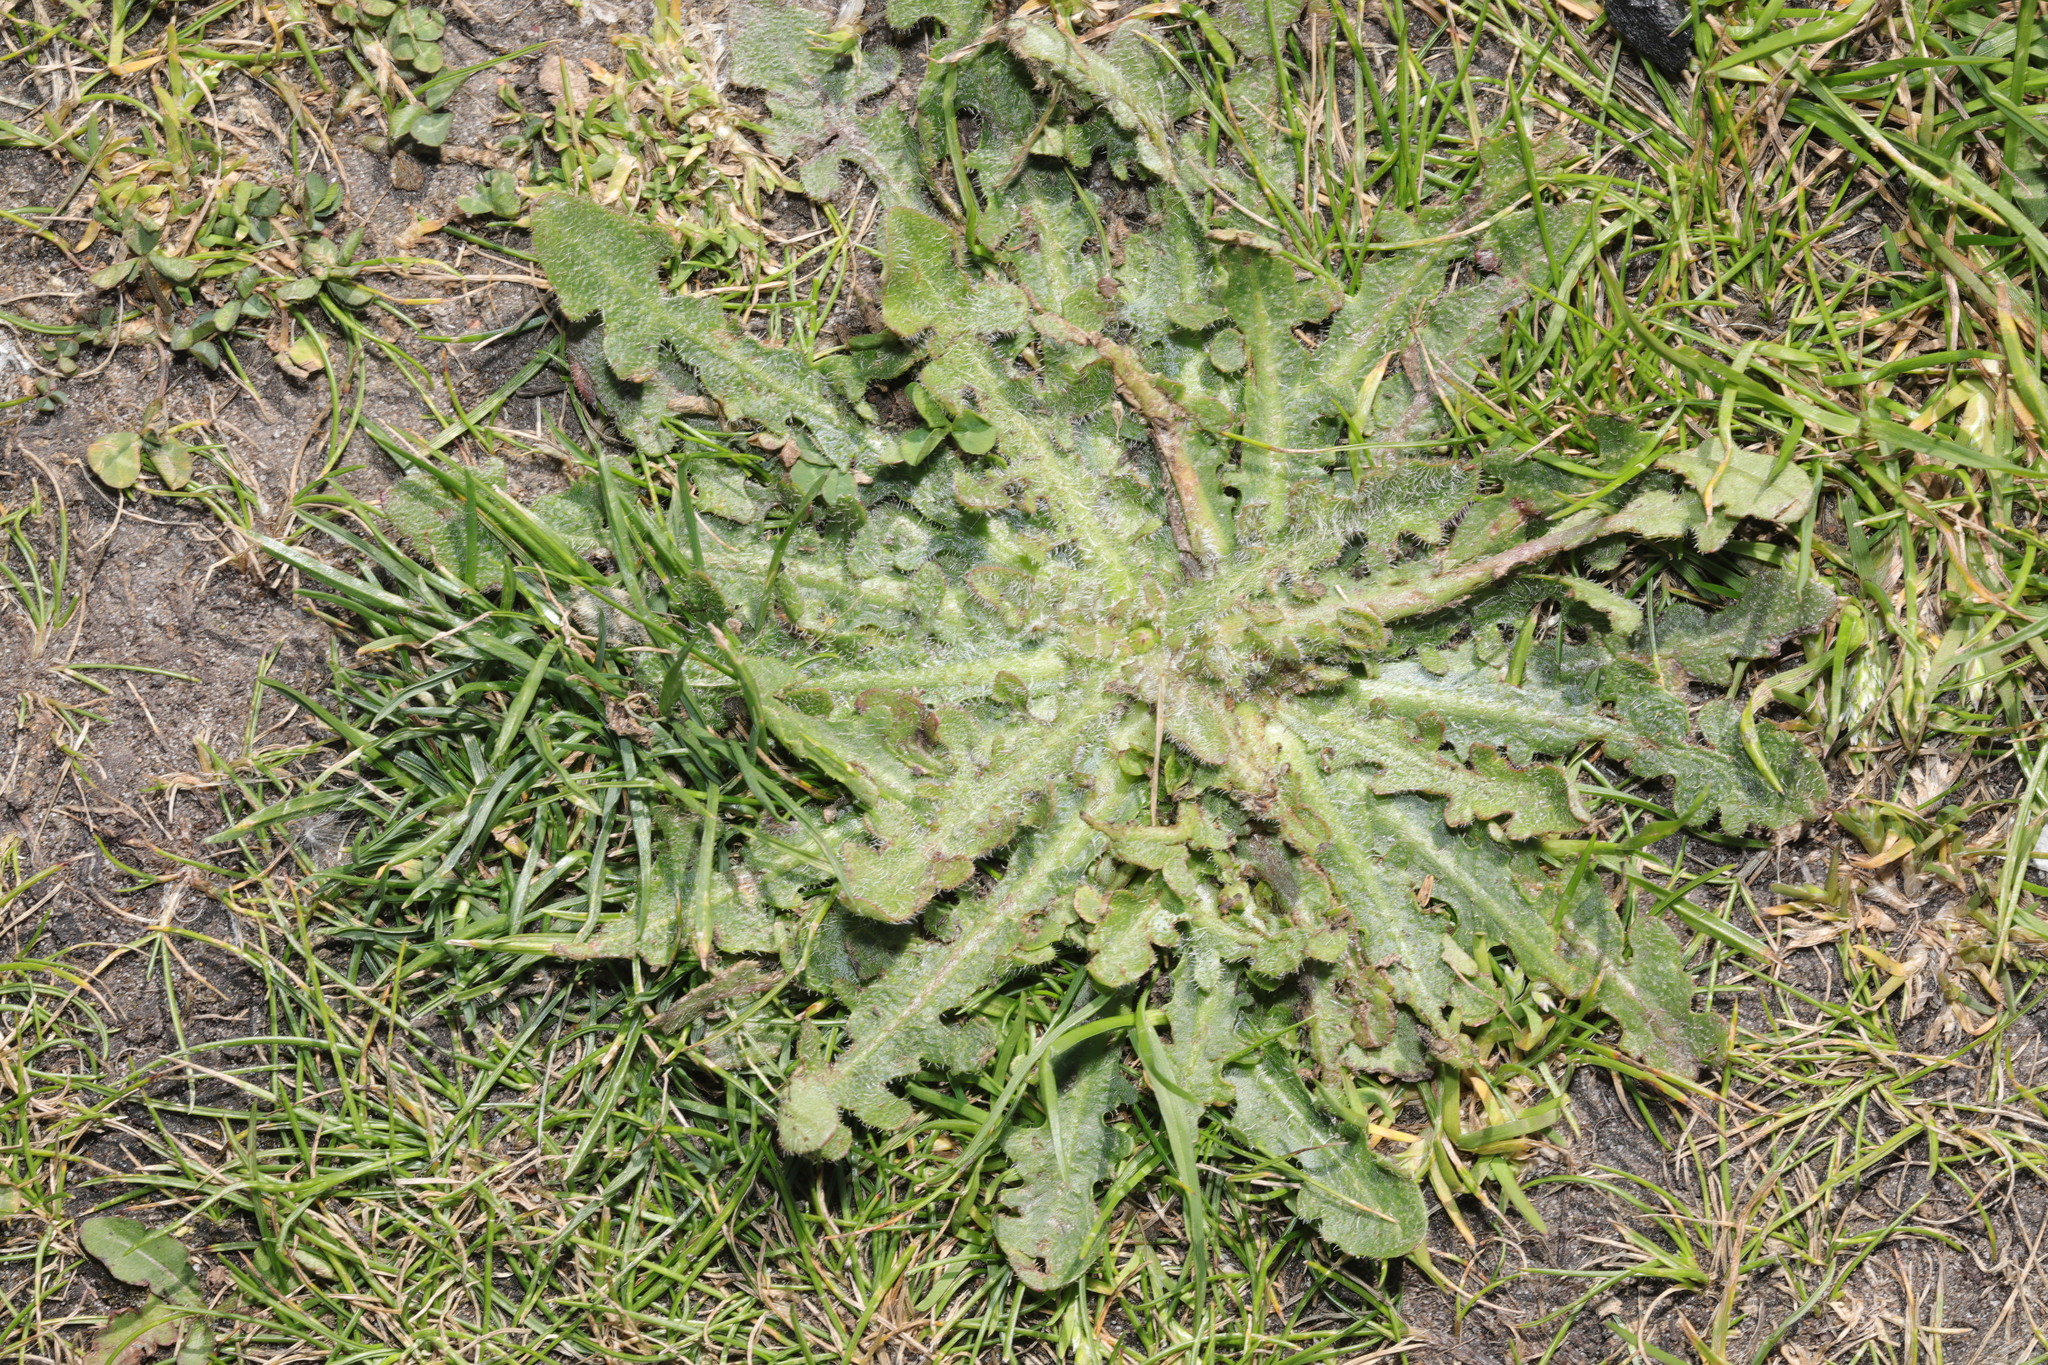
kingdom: Plantae
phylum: Tracheophyta
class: Magnoliopsida
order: Asterales
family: Asteraceae
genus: Hypochaeris
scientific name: Hypochaeris radicata
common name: Flatweed
